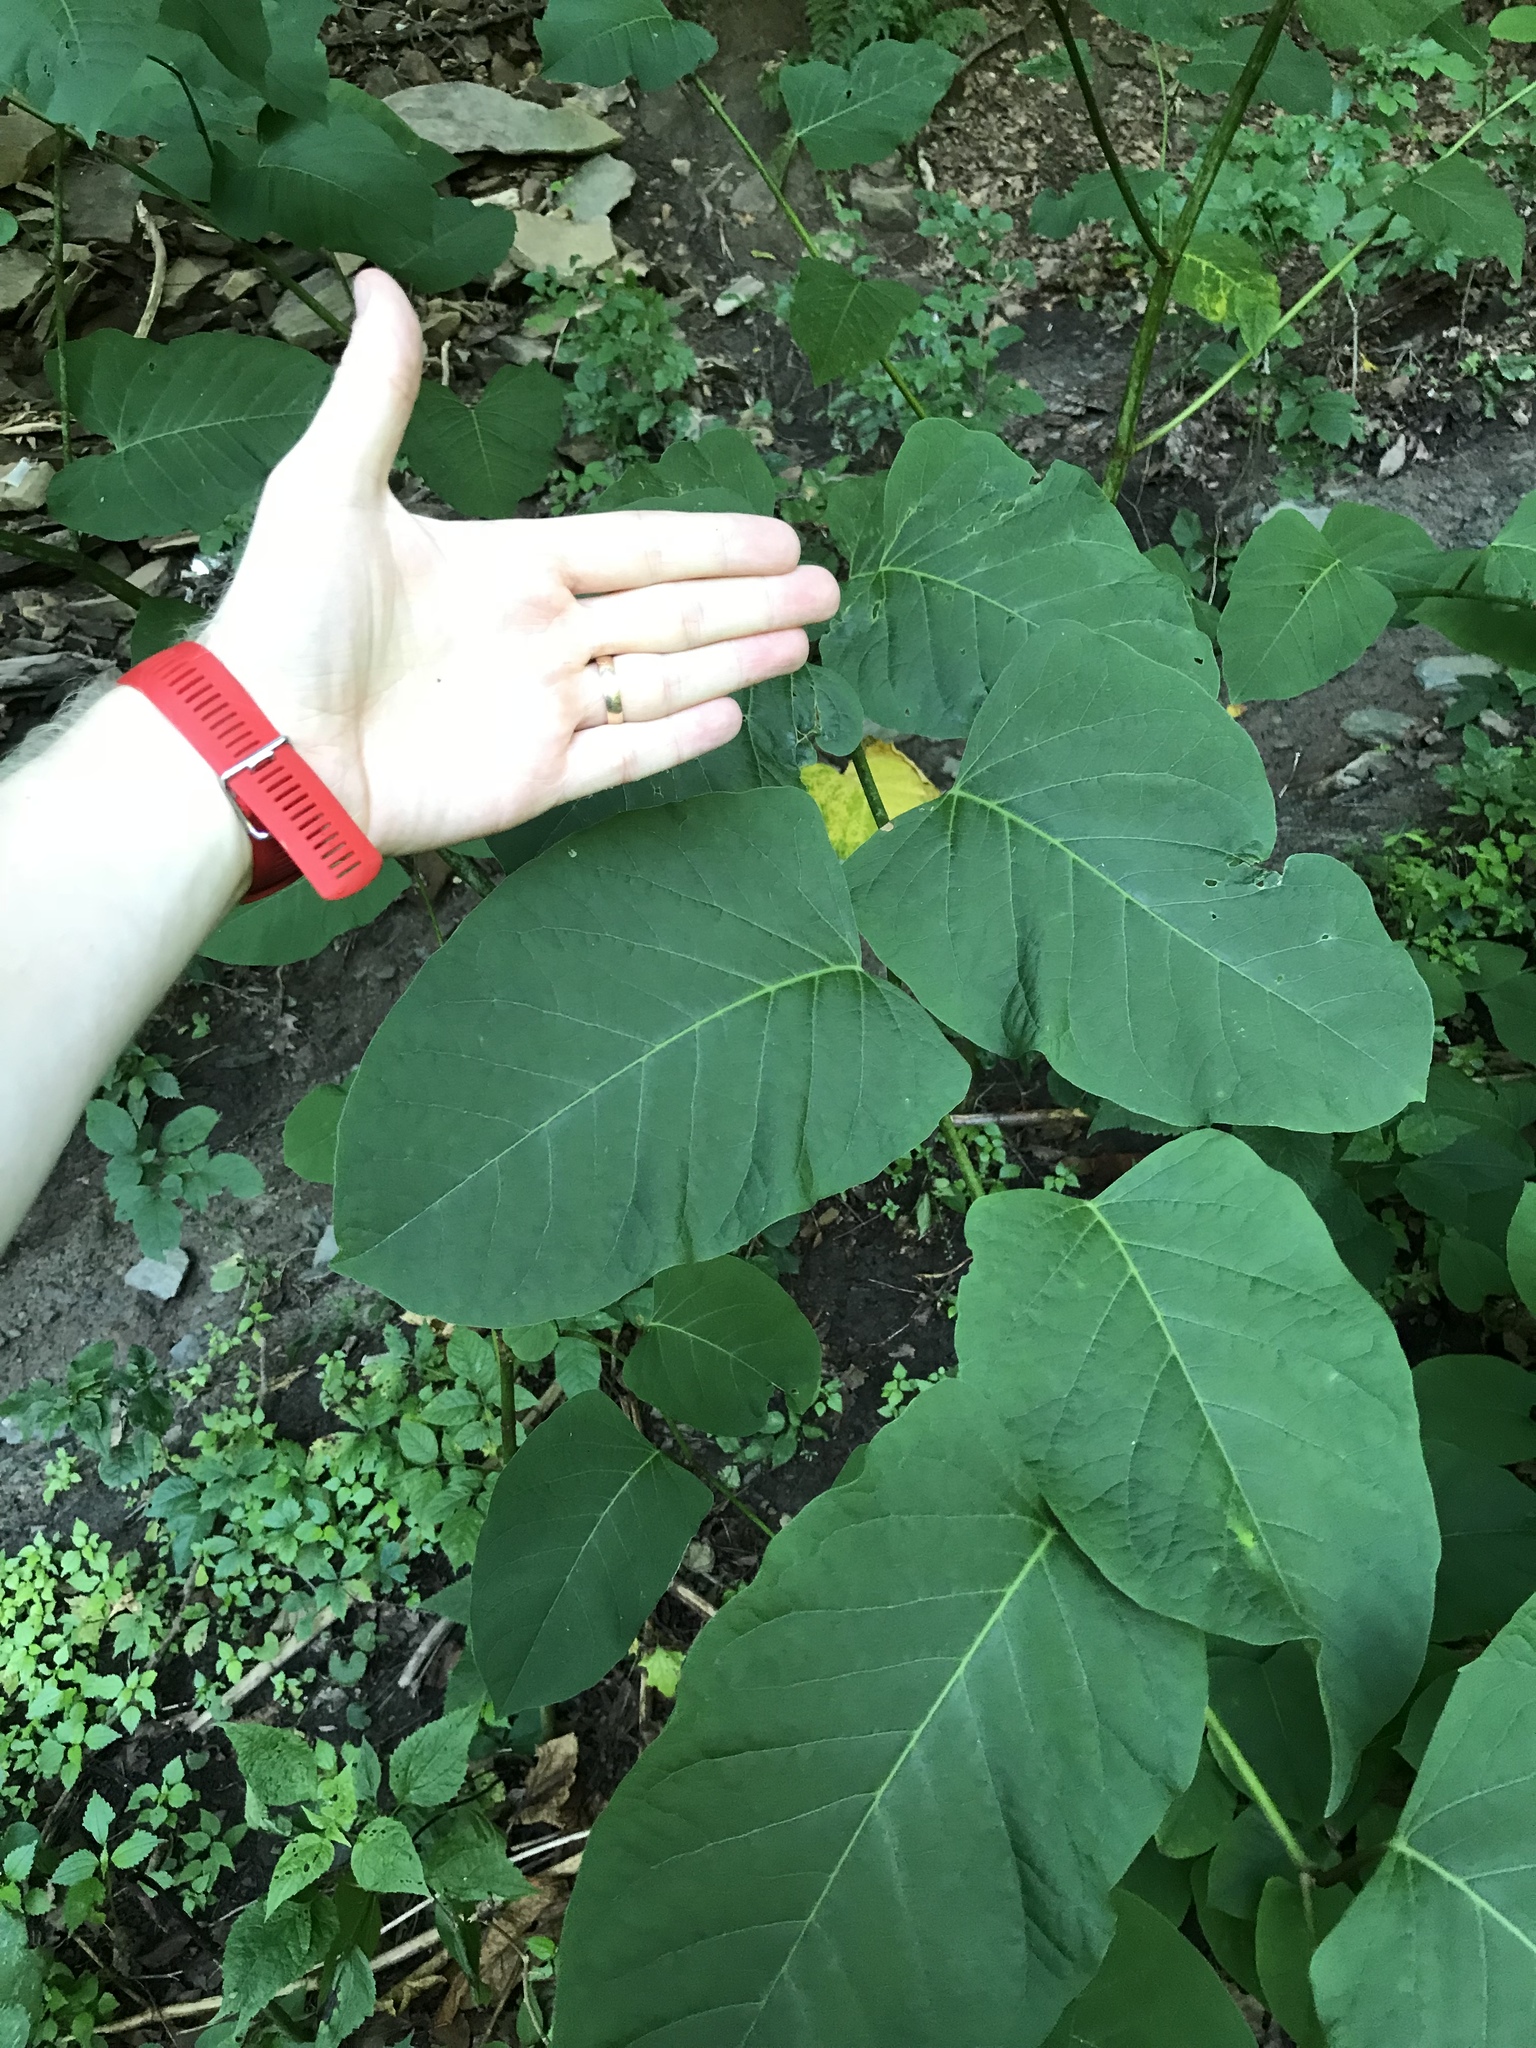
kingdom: Plantae
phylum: Tracheophyta
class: Magnoliopsida
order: Caryophyllales
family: Polygonaceae
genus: Reynoutria
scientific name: Reynoutria bohemica
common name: Bohemian knotweed
